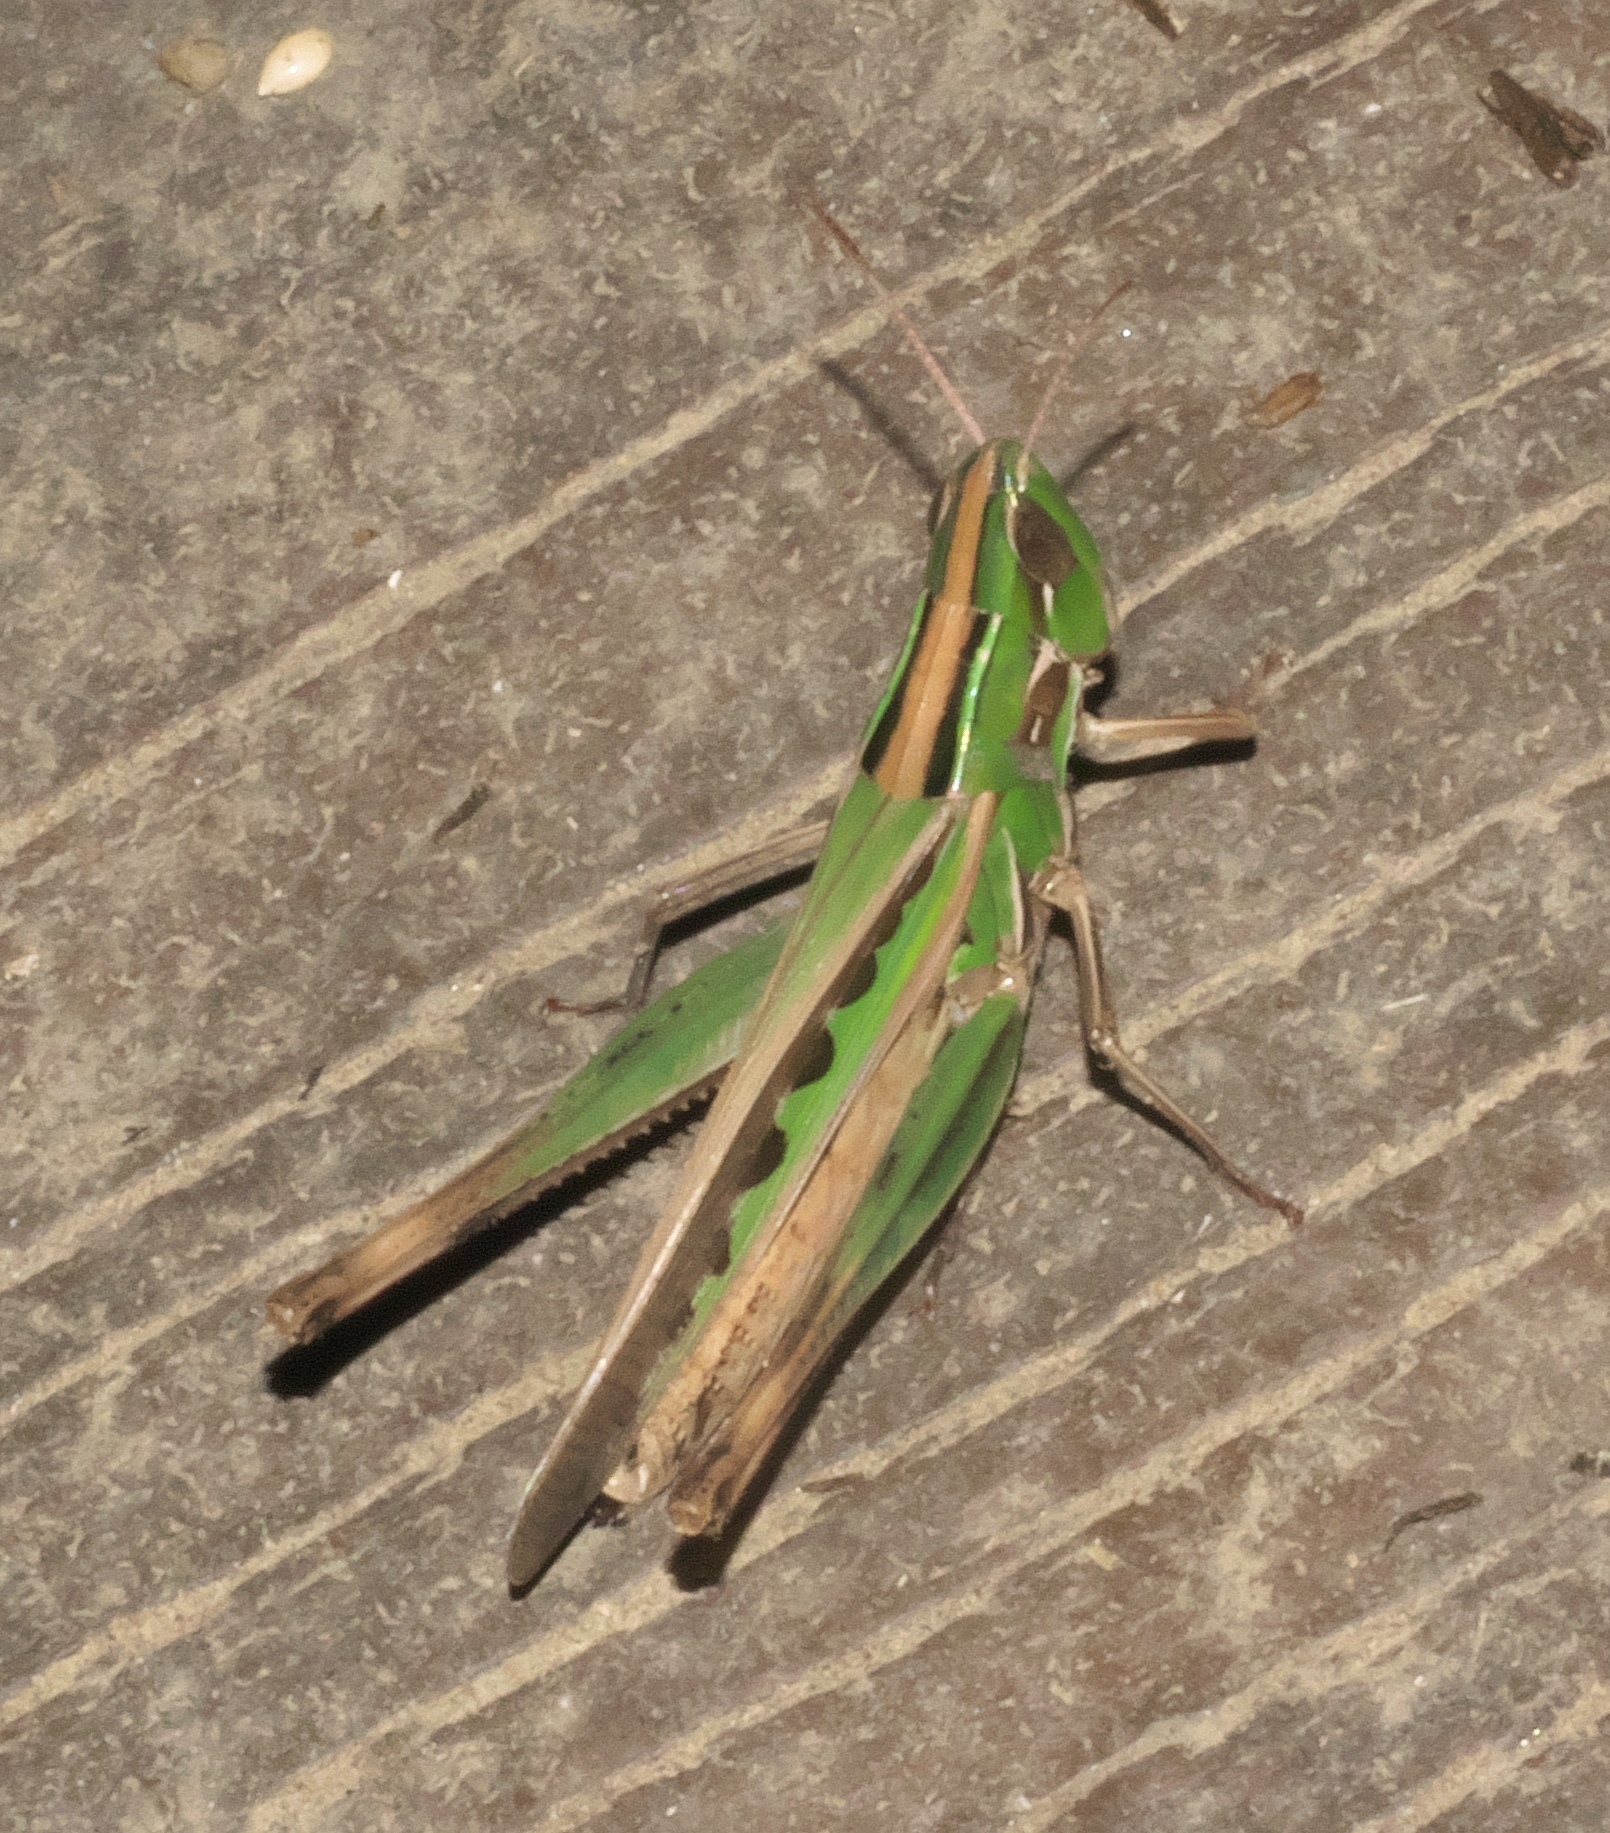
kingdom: Animalia
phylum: Arthropoda
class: Insecta
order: Orthoptera
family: Acrididae
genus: Syrbula
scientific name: Syrbula admirabilis
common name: Handsome grasshopper
